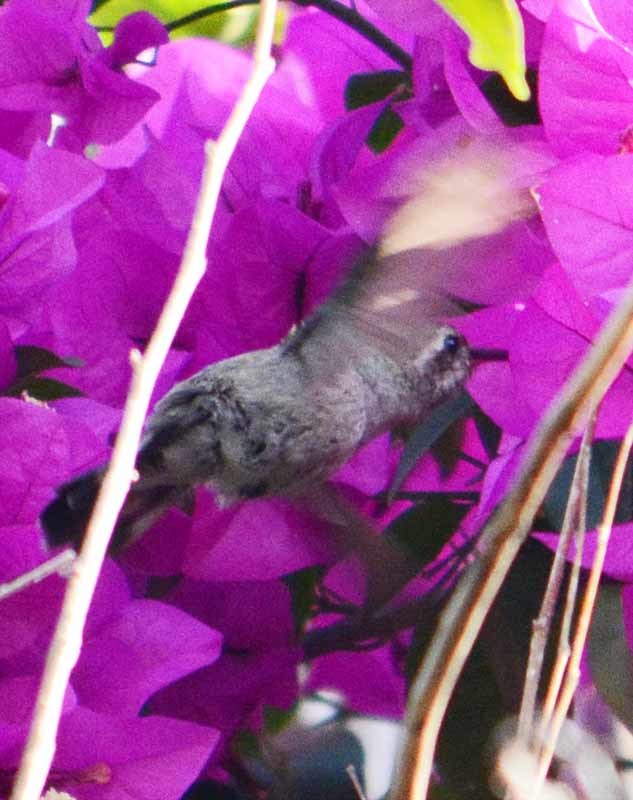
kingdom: Animalia
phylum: Chordata
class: Aves
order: Apodiformes
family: Trochilidae
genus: Cynanthus
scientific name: Cynanthus latirostris
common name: Broad-billed hummingbird
